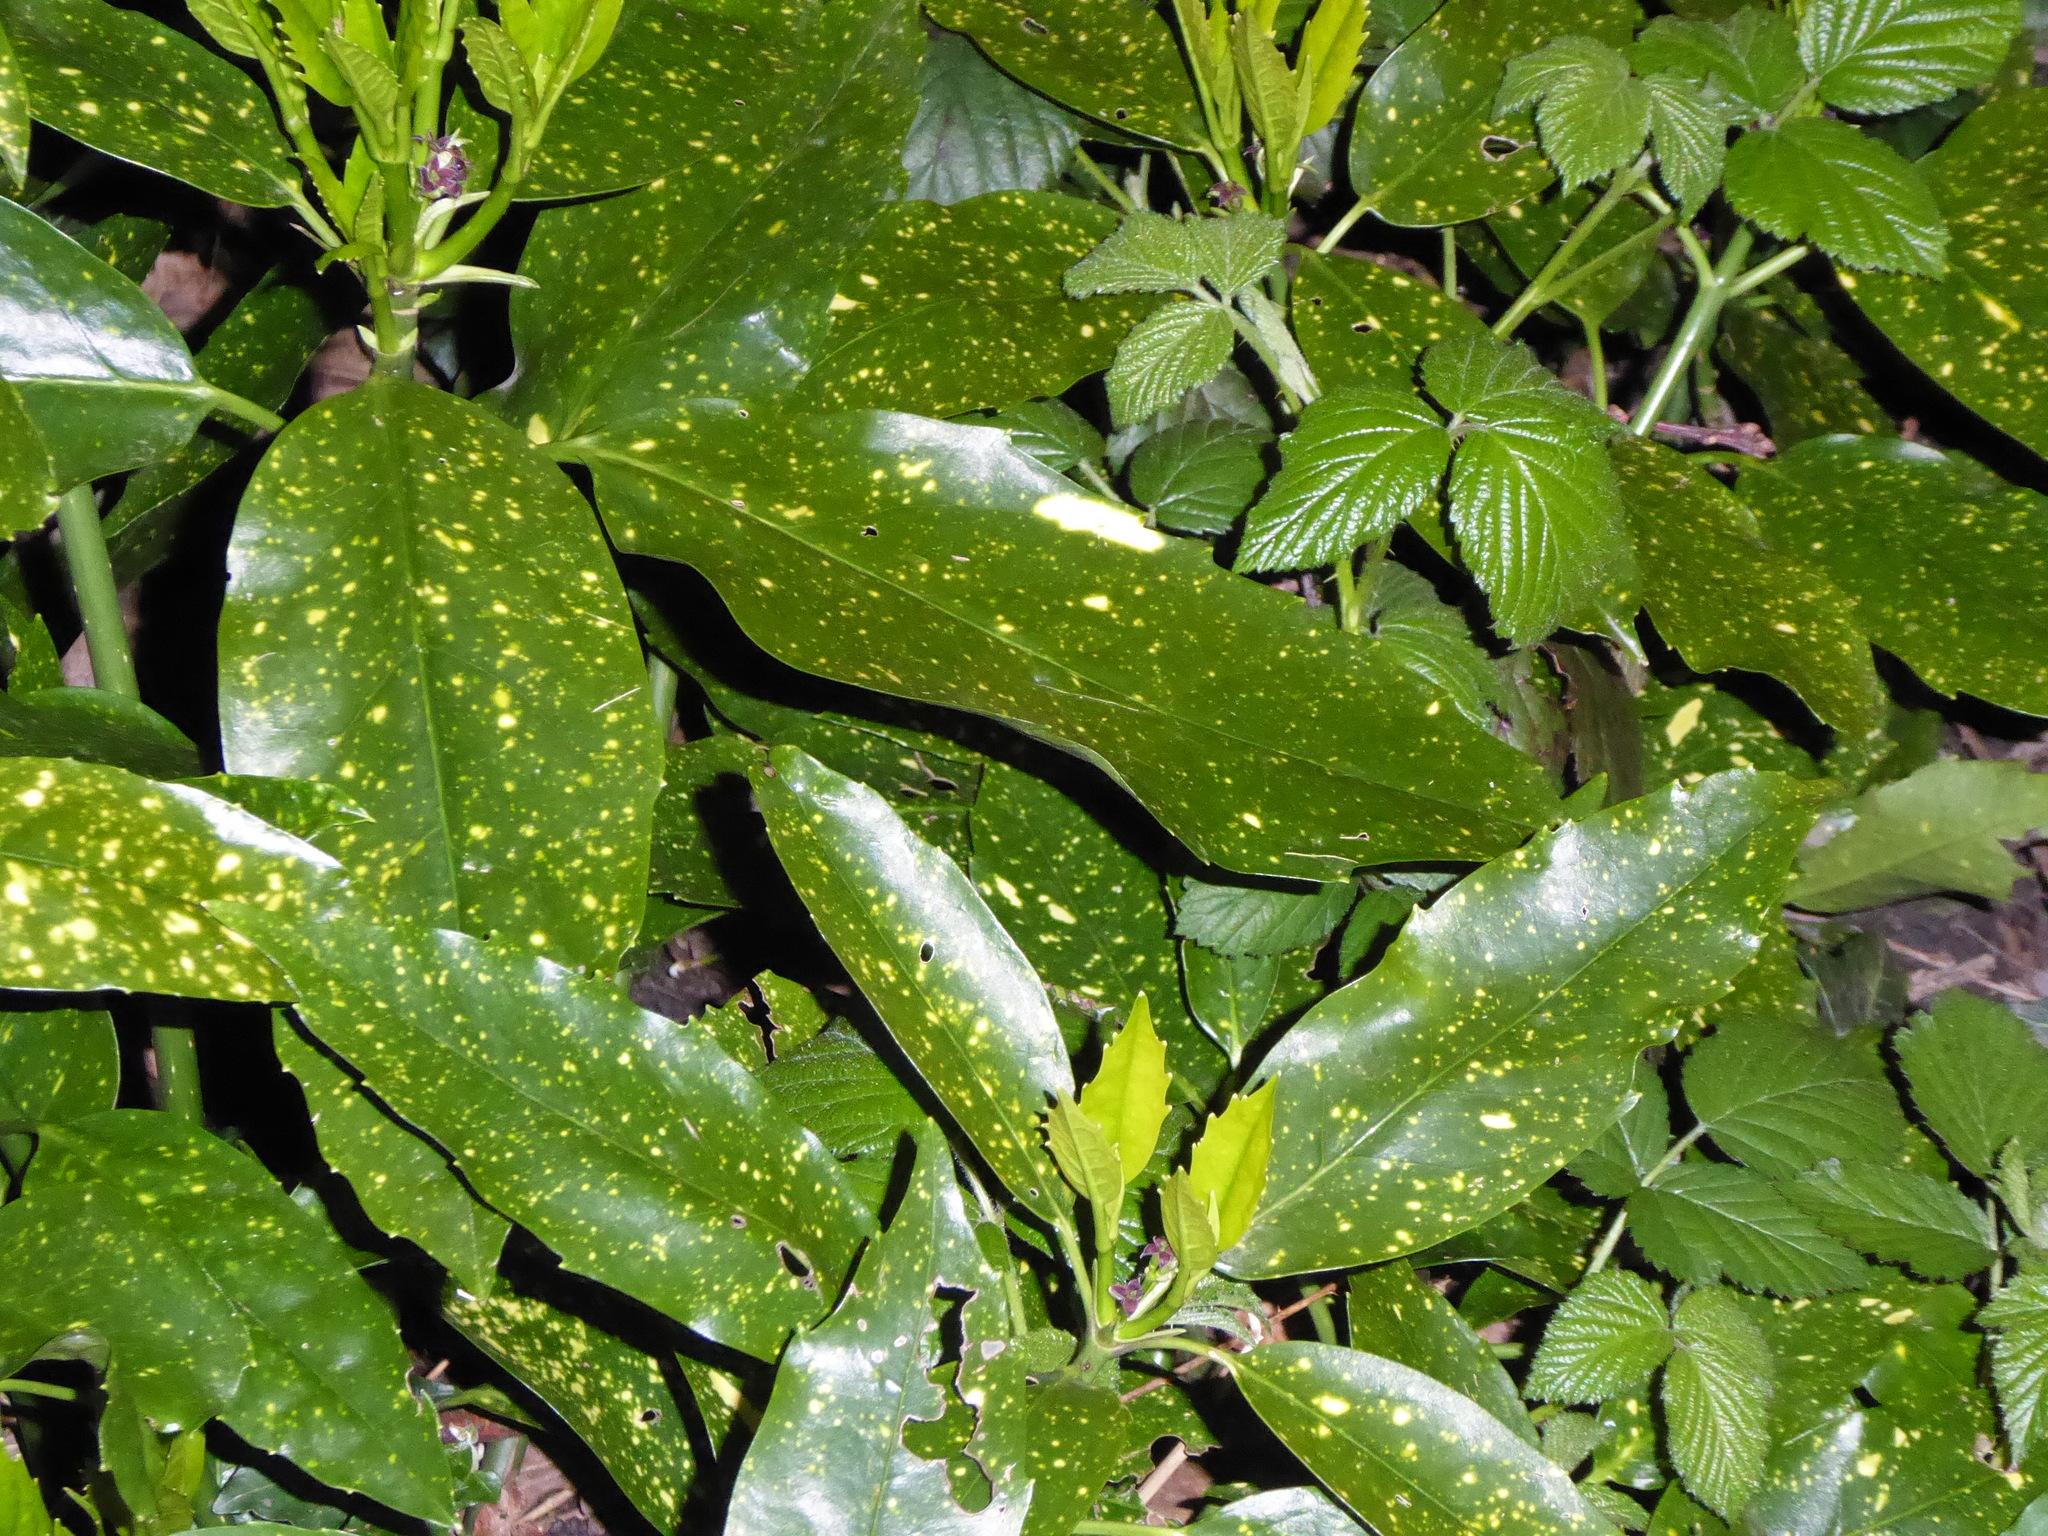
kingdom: Plantae
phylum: Tracheophyta
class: Magnoliopsida
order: Garryales
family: Garryaceae
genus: Aucuba
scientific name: Aucuba japonica
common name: Spotted-laurel
